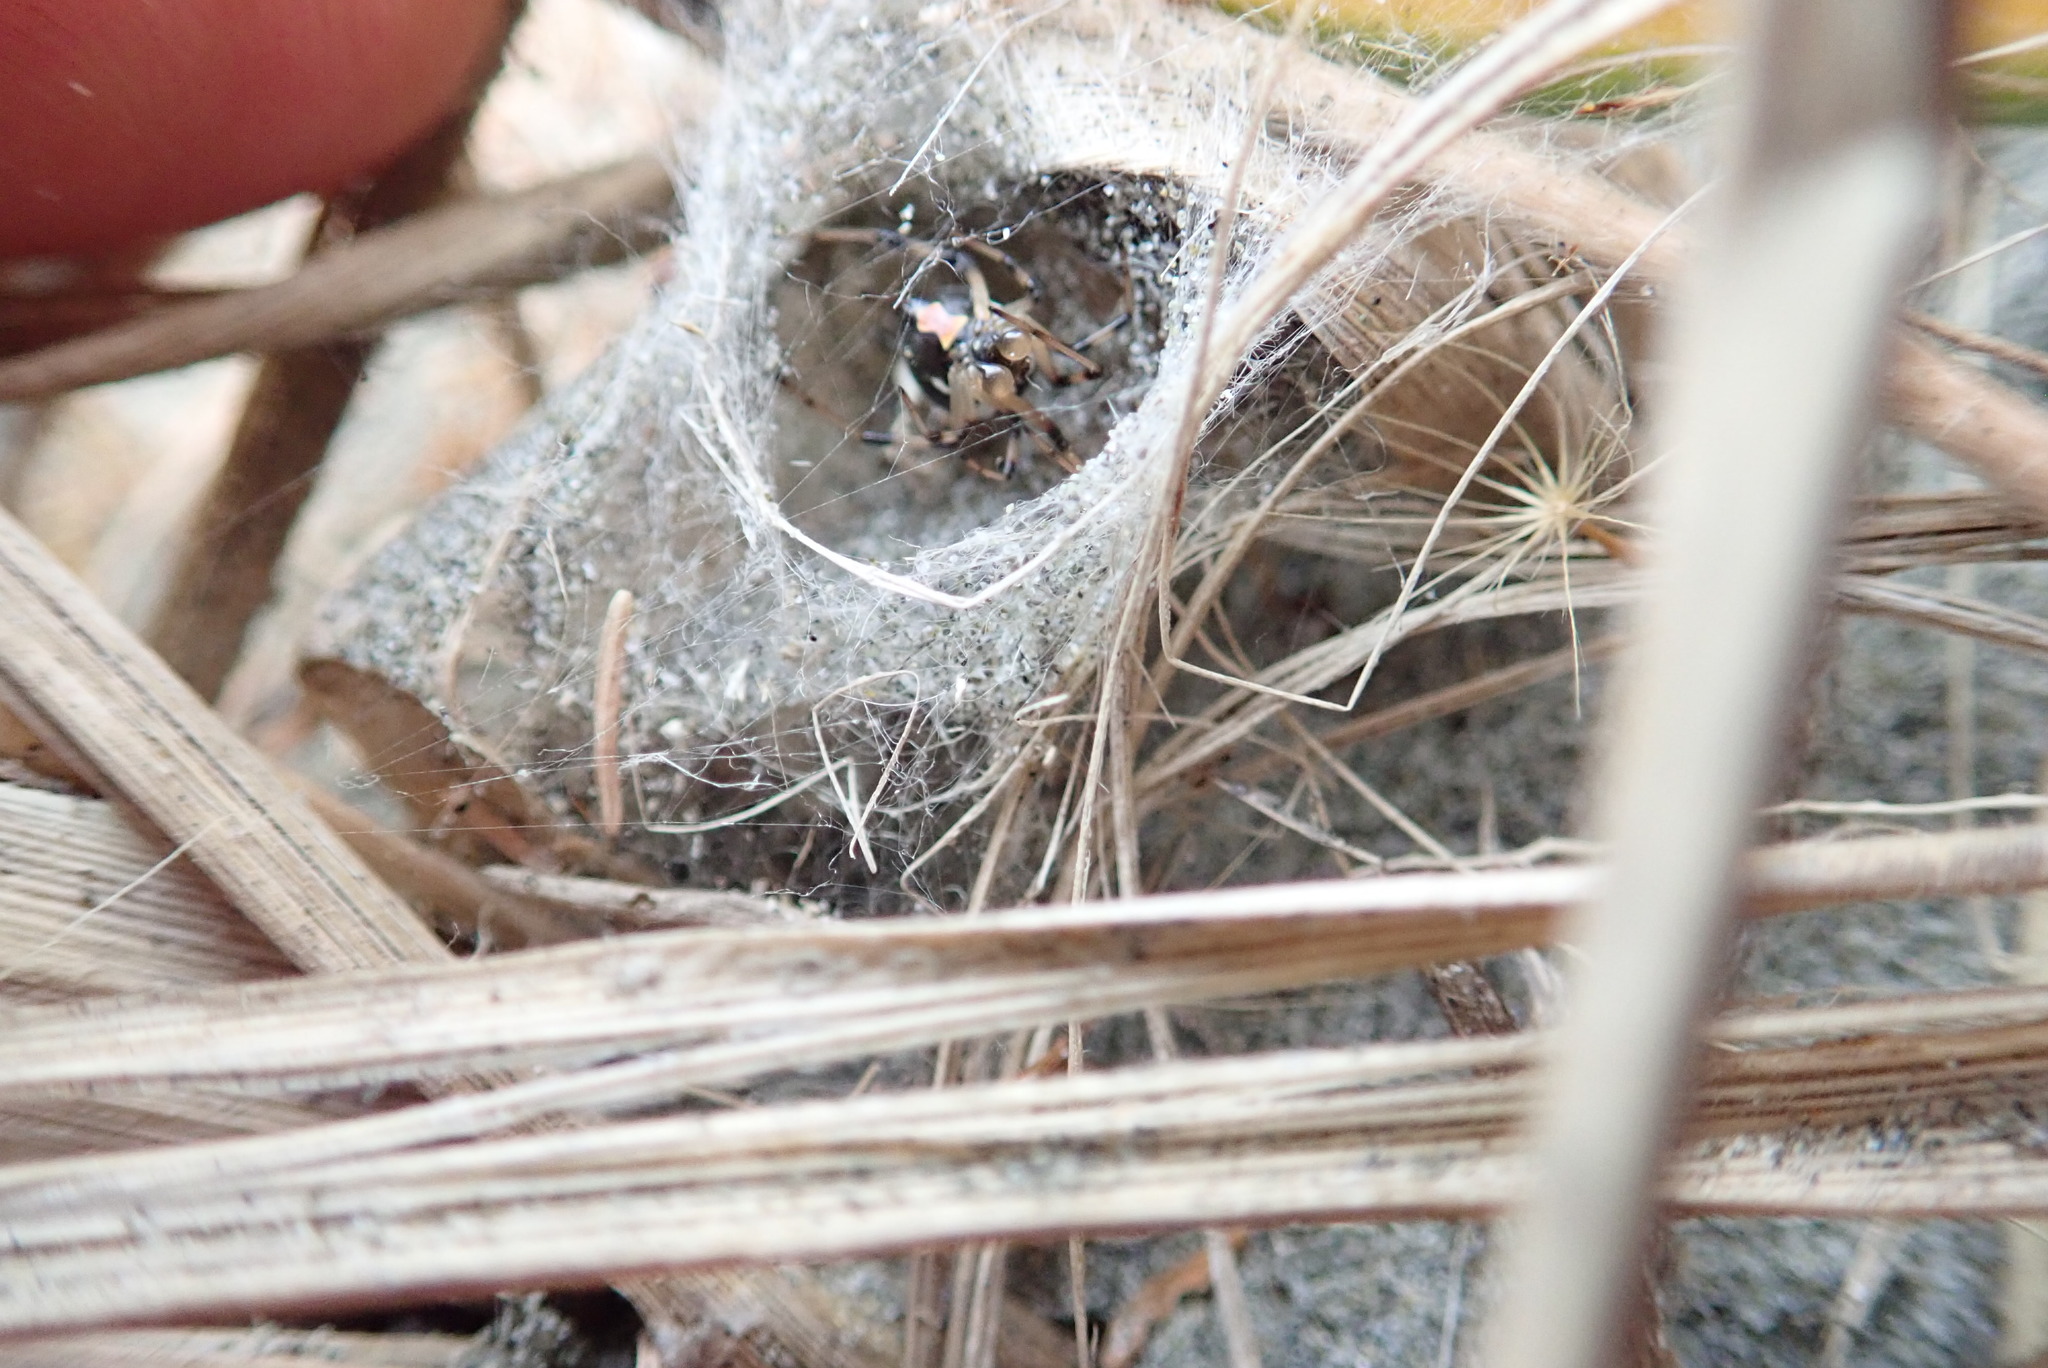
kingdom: Animalia
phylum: Arthropoda
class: Arachnida
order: Araneae
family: Theridiidae
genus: Latrodectus
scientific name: Latrodectus katipo
